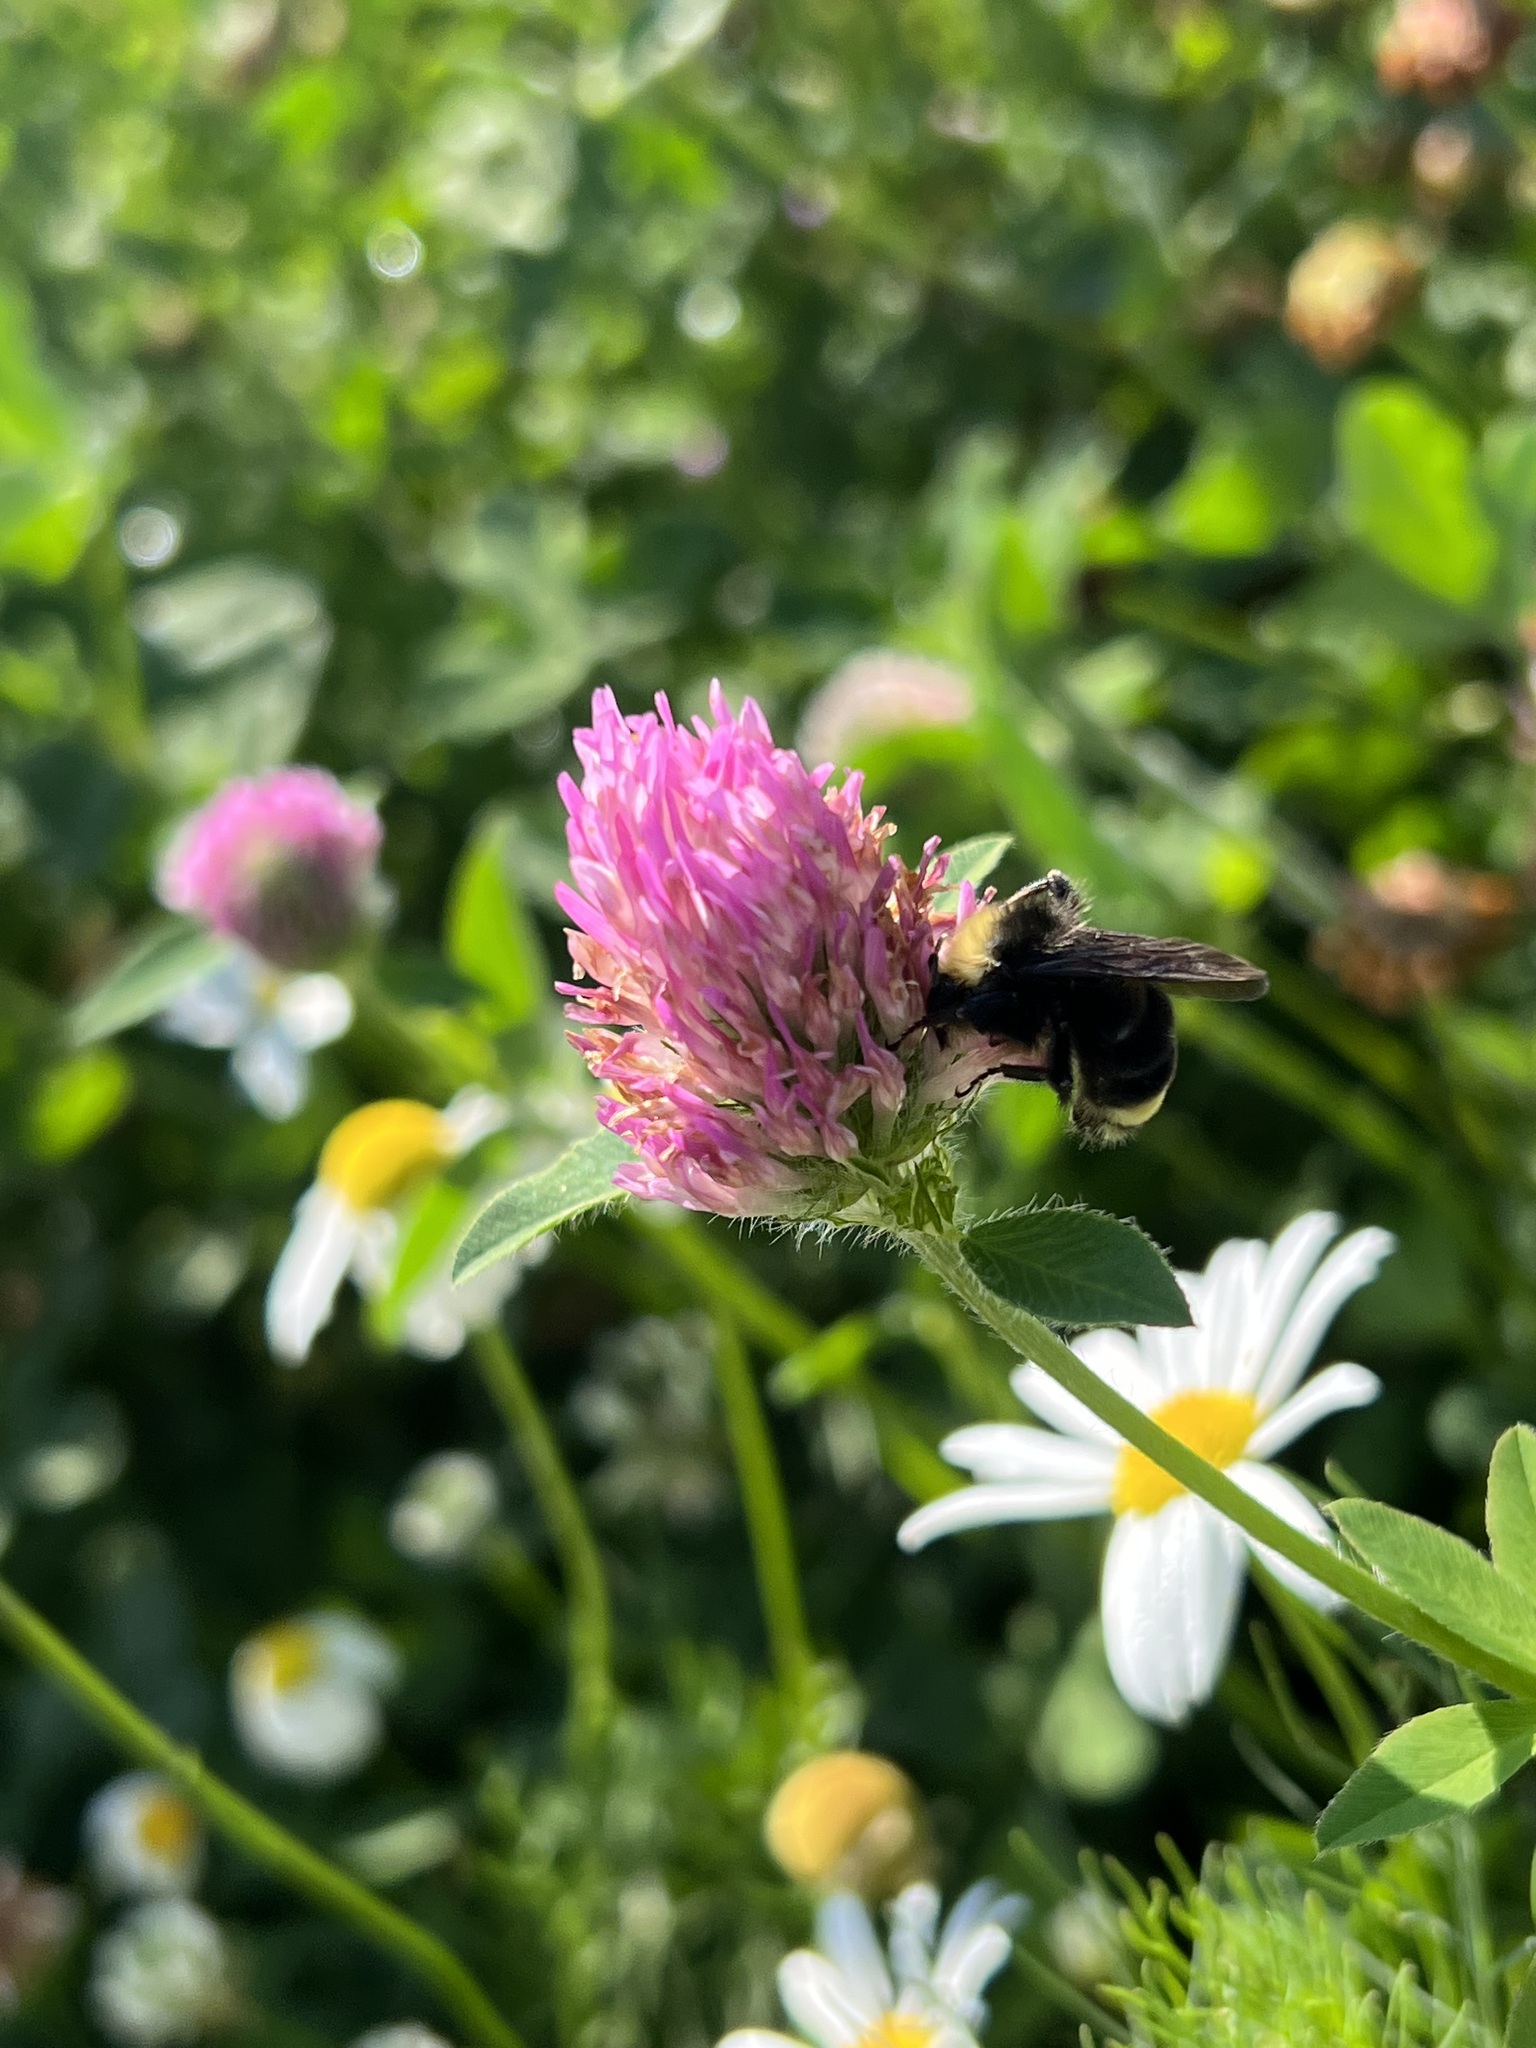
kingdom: Animalia
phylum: Arthropoda
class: Insecta
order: Hymenoptera
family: Apidae
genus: Bombus
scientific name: Bombus vosnesenskii
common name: Vosnesensky bumble bee
